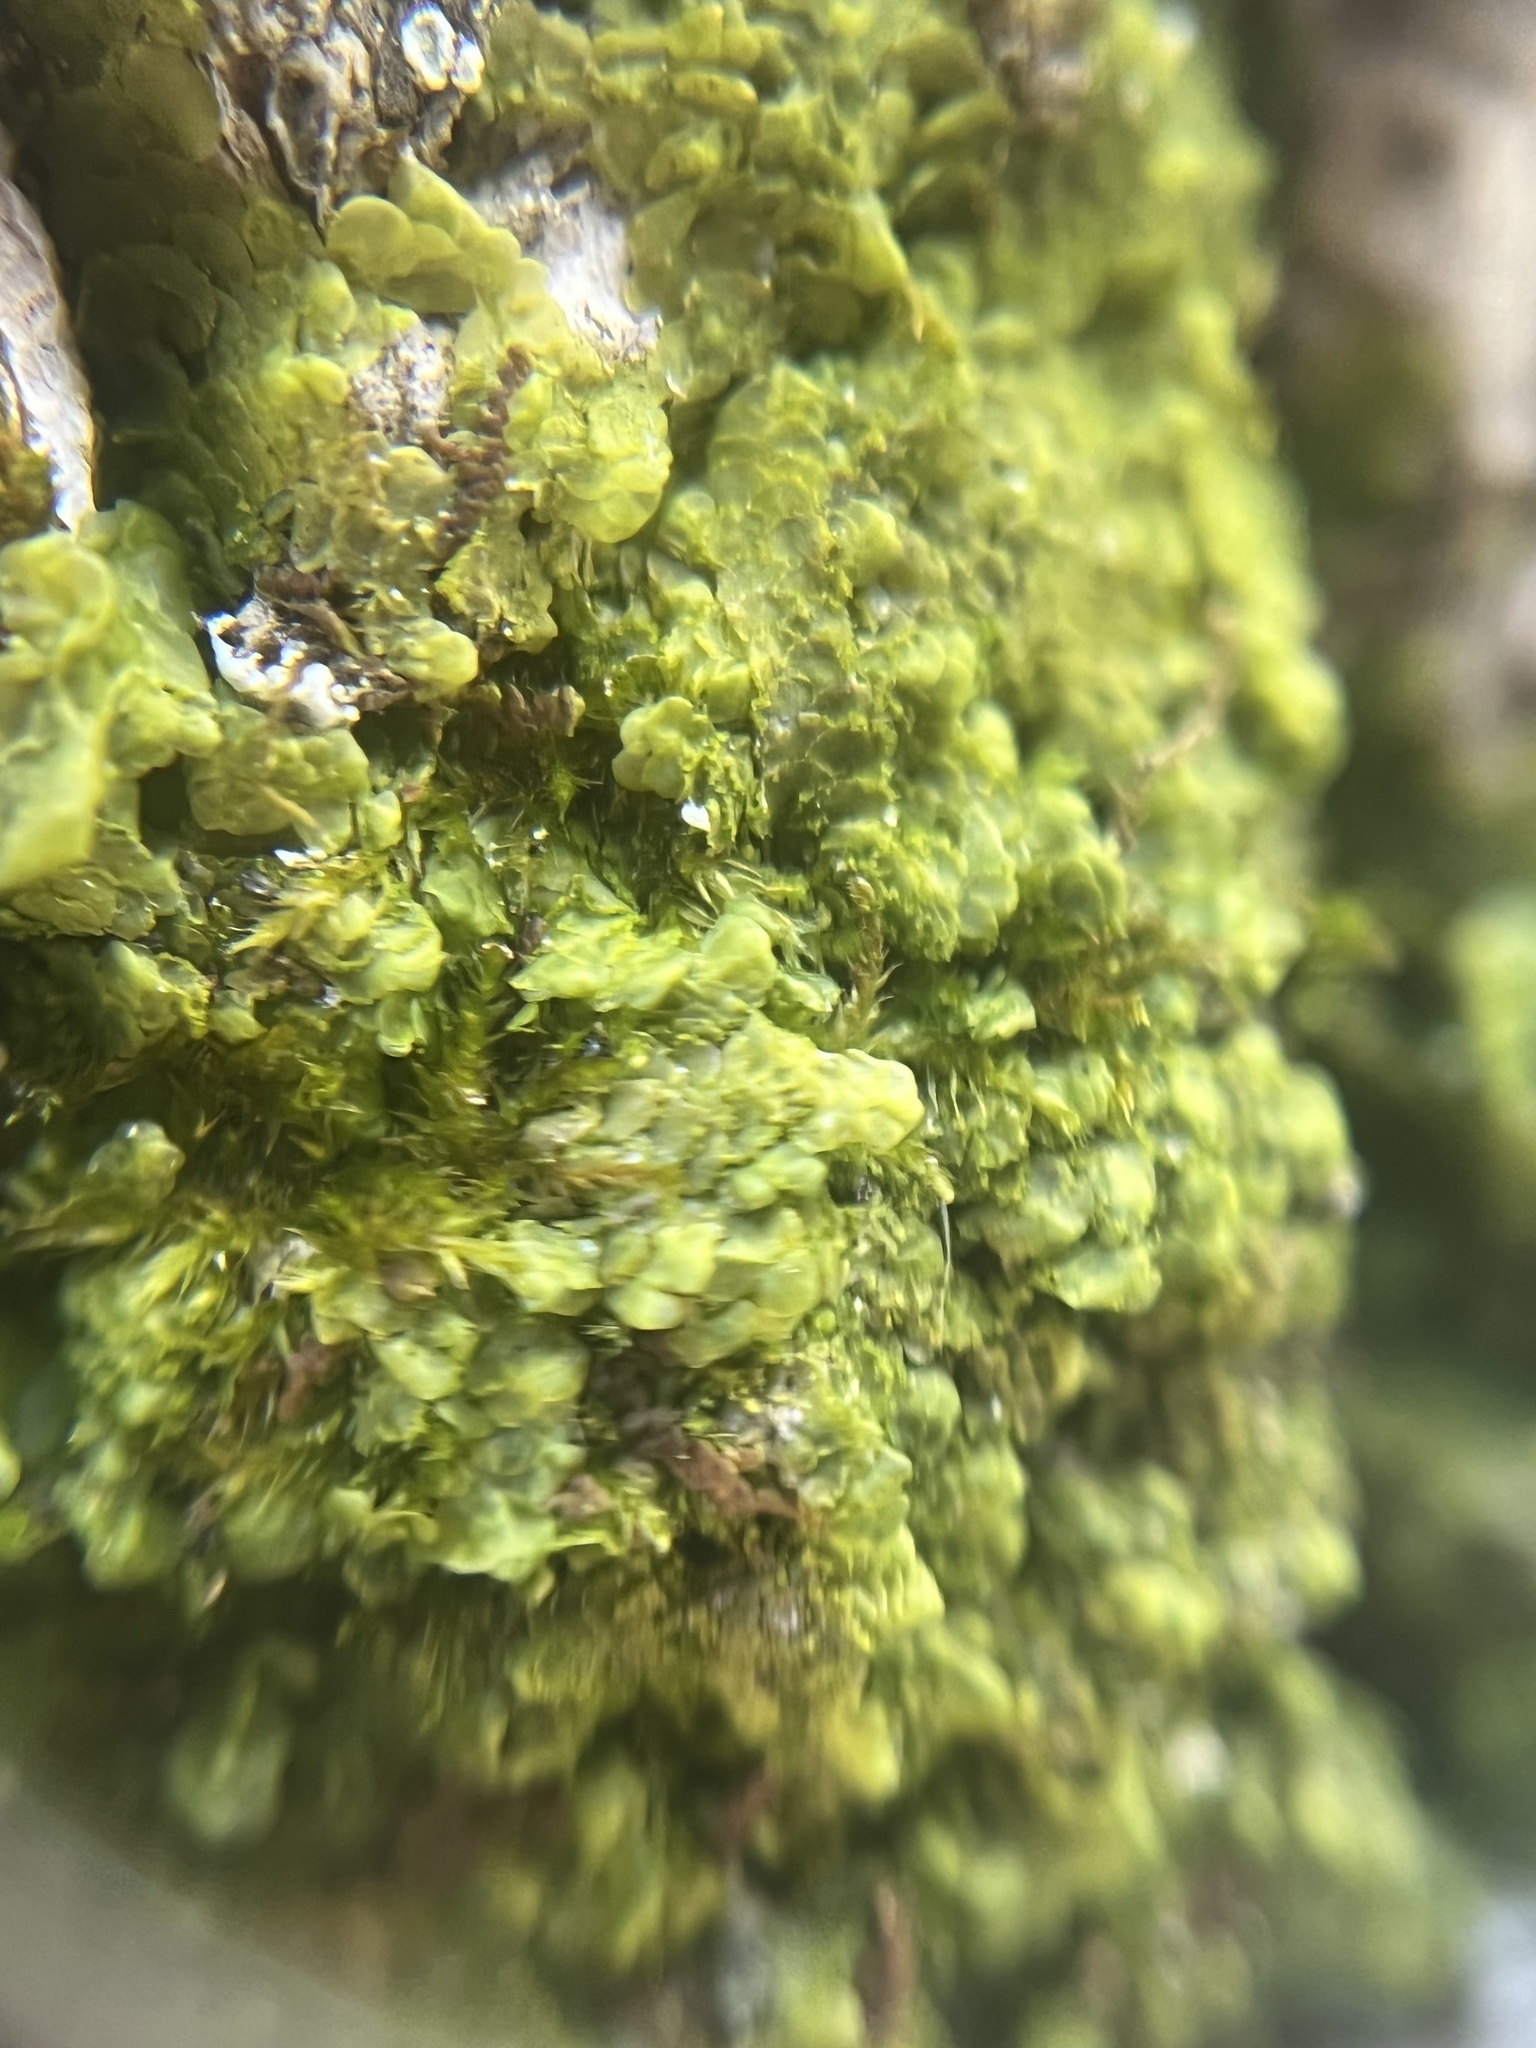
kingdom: Plantae
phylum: Marchantiophyta
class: Jungermanniopsida
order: Porellales
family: Radulaceae
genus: Radula
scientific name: Radula complanata
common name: Flat-leaved scalewort
